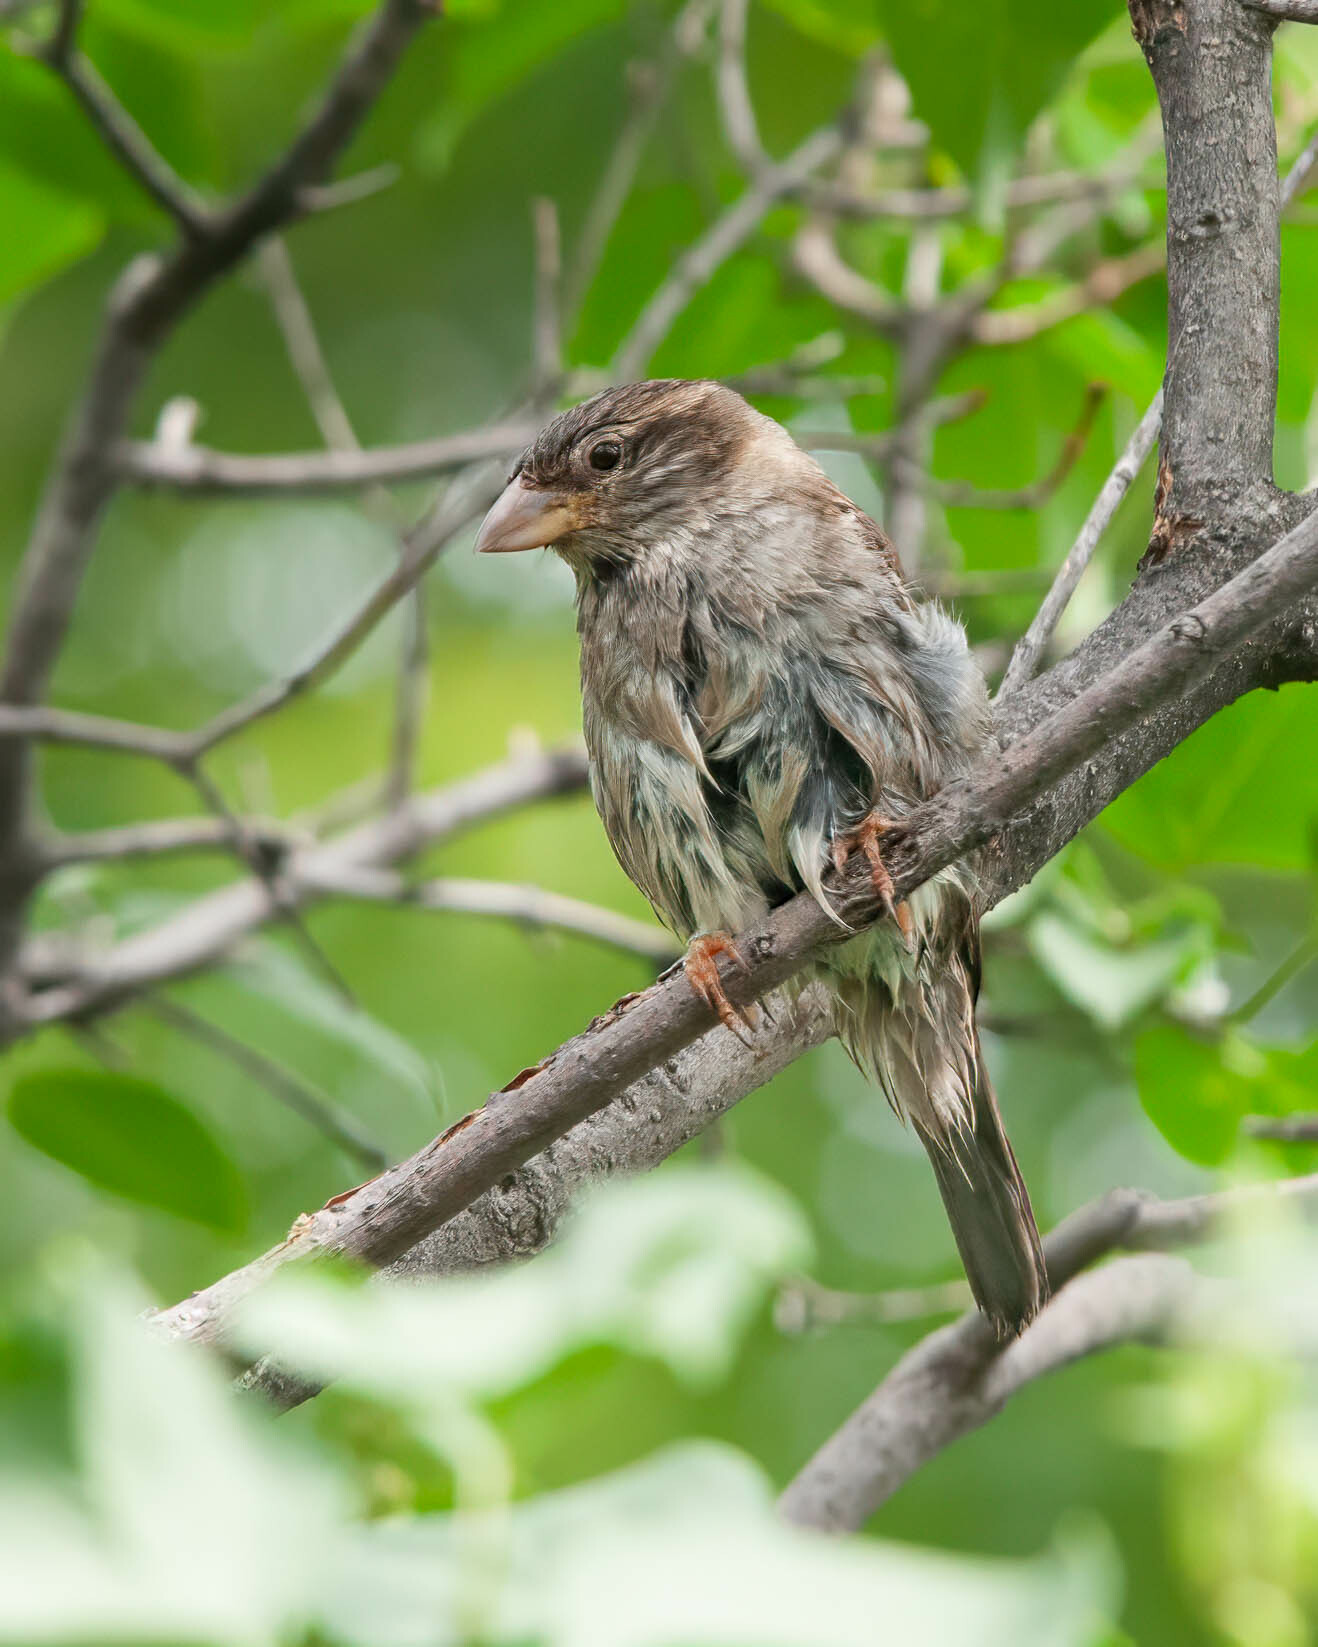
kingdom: Animalia
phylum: Chordata
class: Aves
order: Passeriformes
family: Passeridae
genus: Passer
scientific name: Passer domesticus
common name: House sparrow
